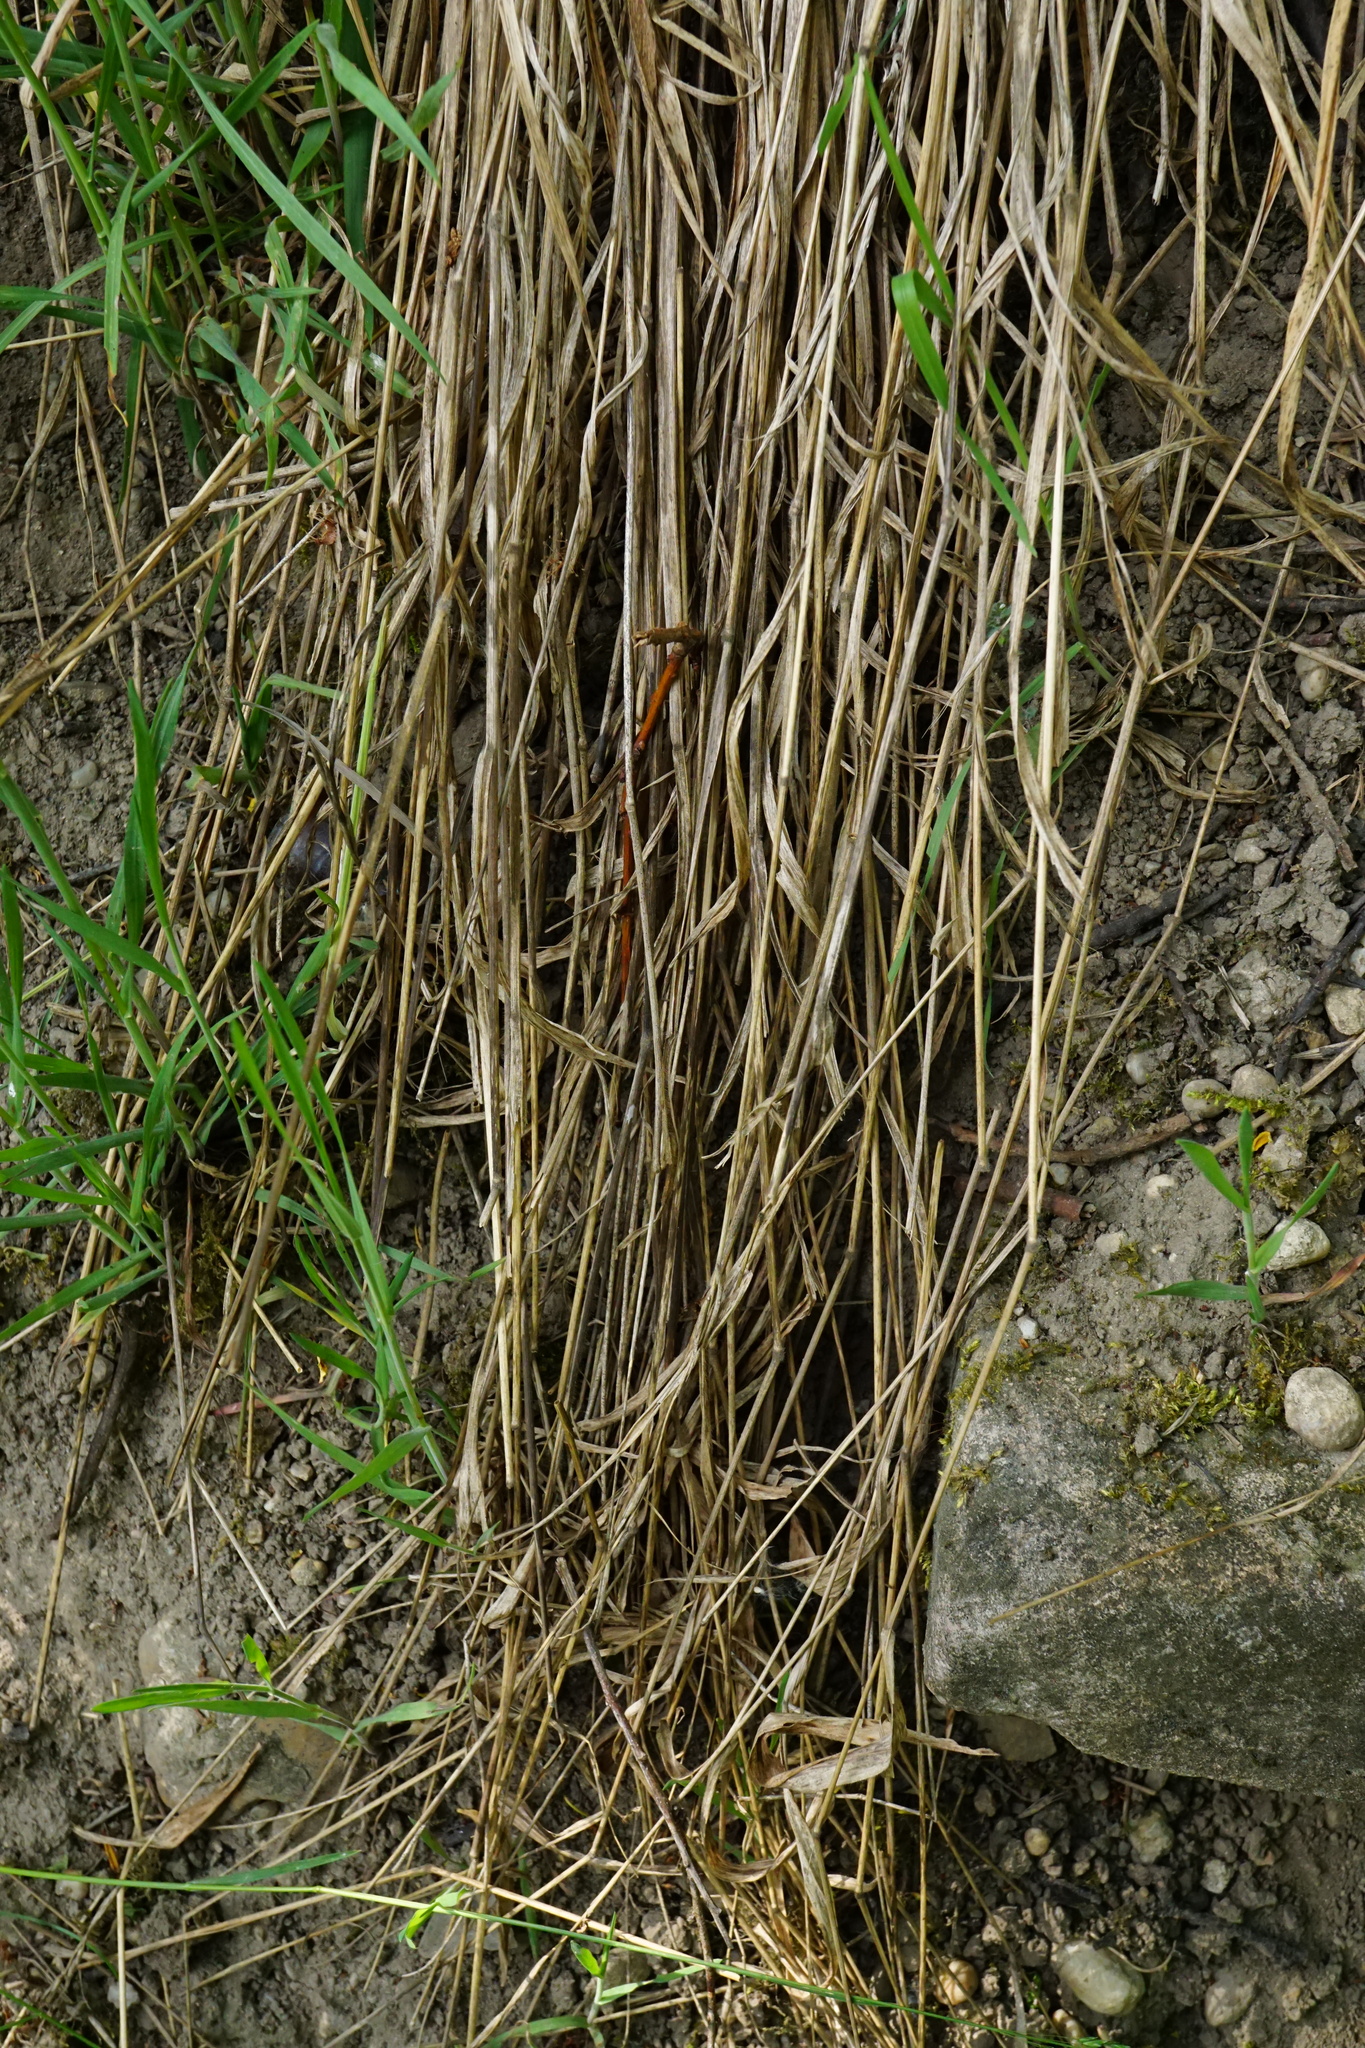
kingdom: Plantae
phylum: Tracheophyta
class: Liliopsida
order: Poales
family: Poaceae
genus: Brachypodium
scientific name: Brachypodium pinnatum
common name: Tor grass
